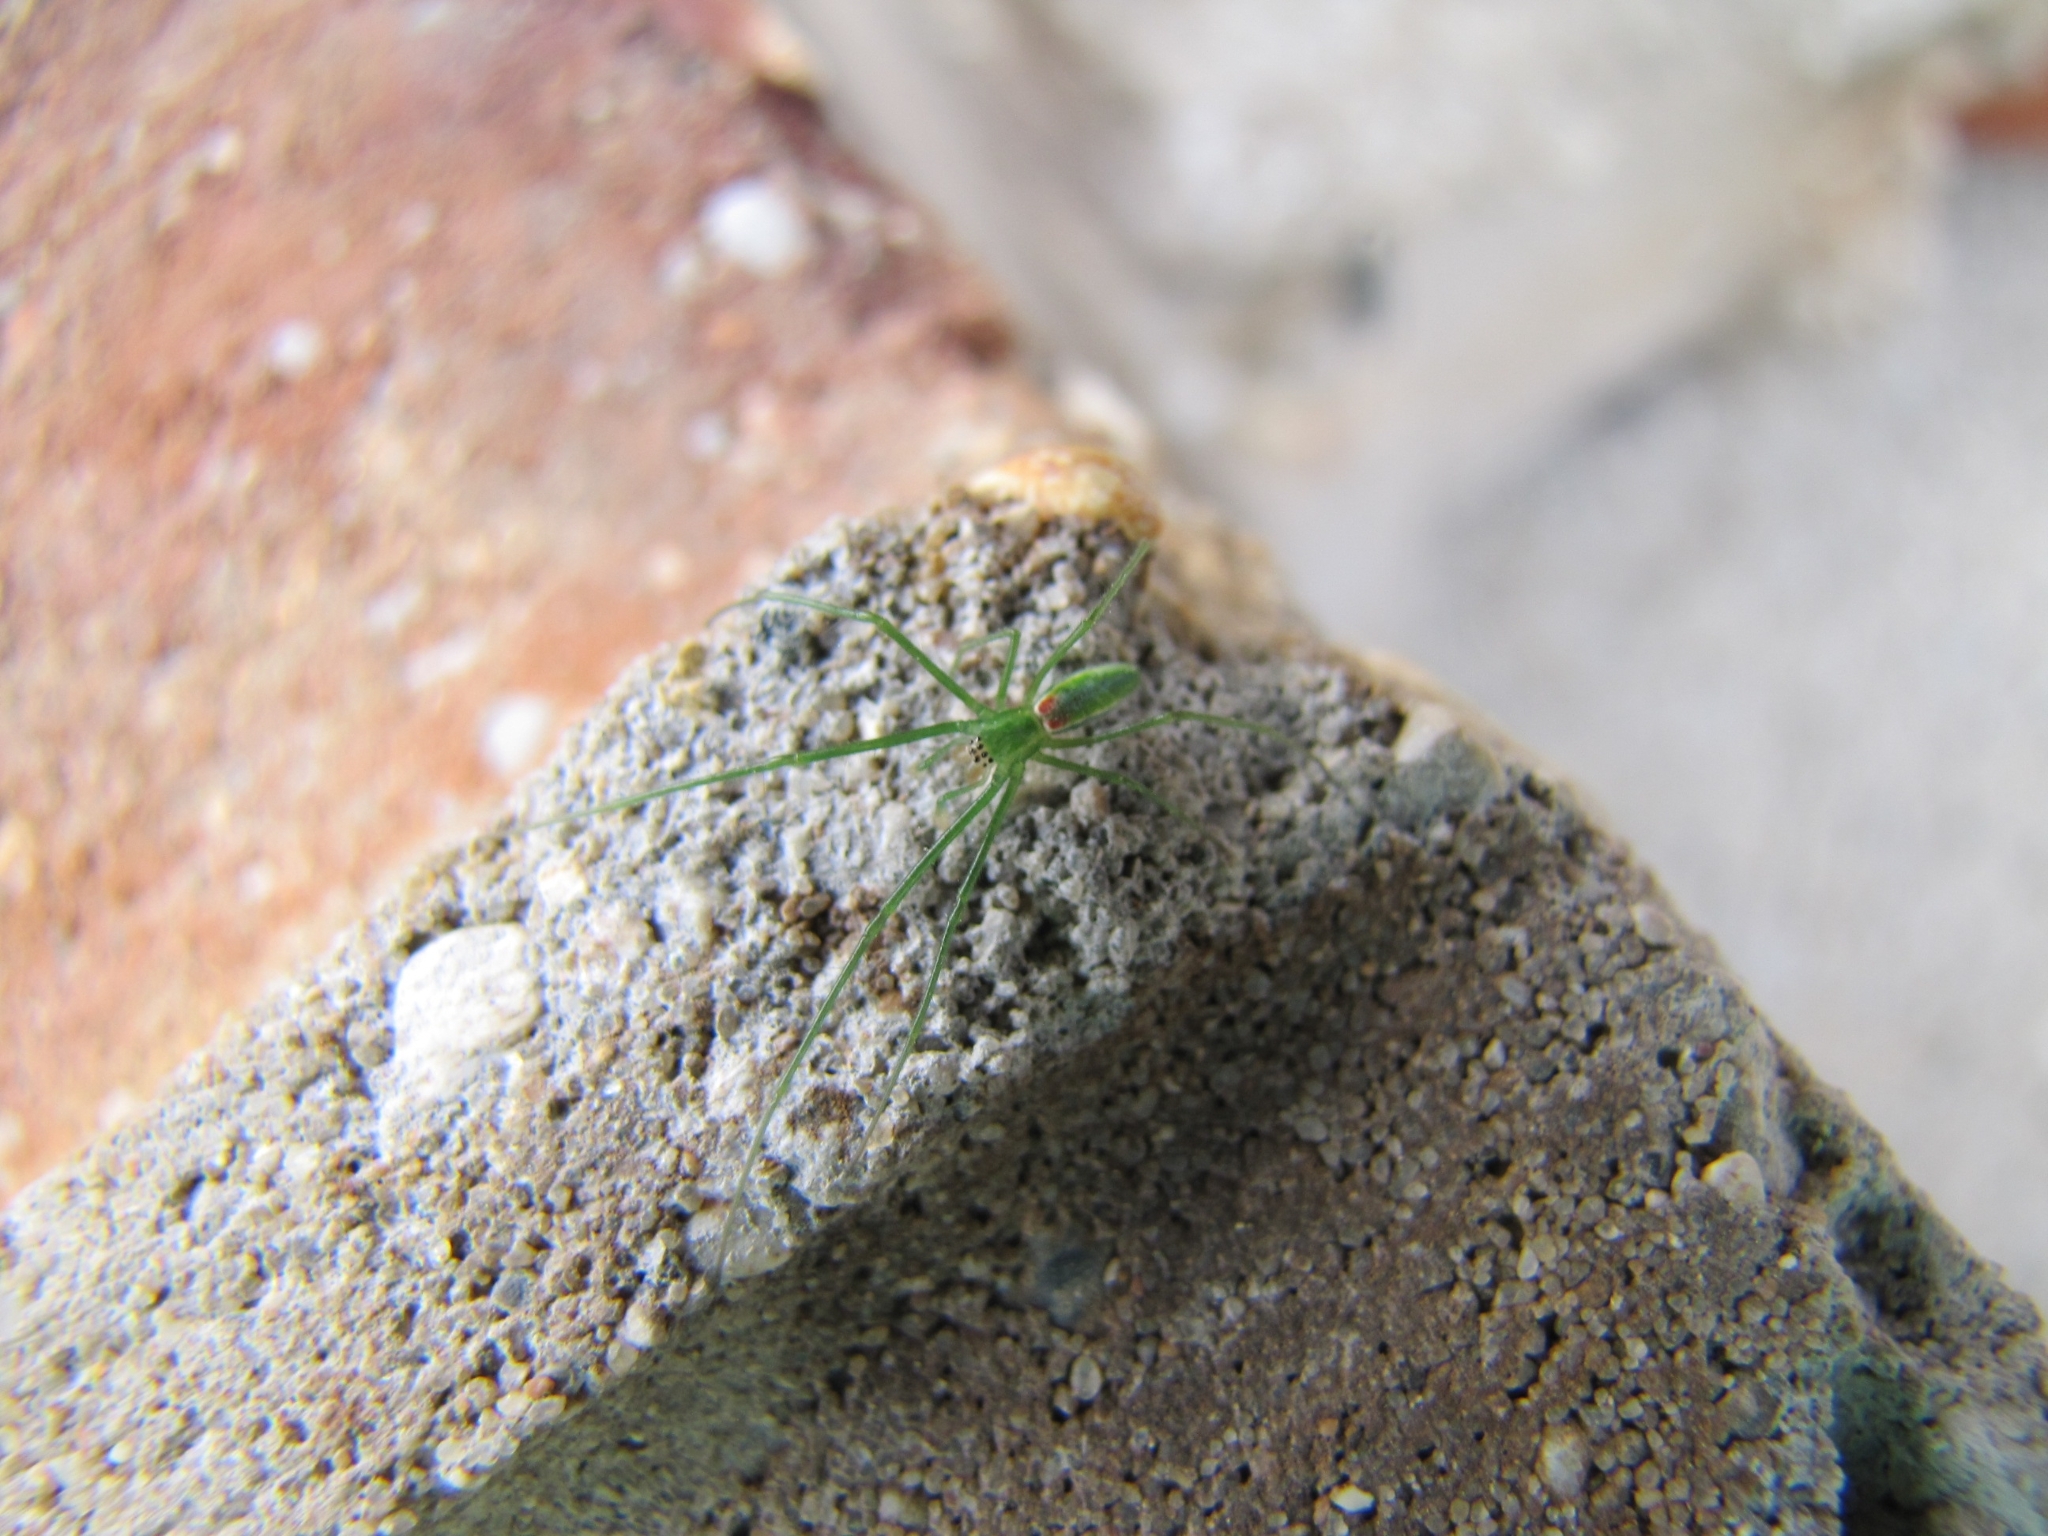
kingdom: Animalia
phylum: Arthropoda
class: Arachnida
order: Araneae
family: Tetragnathidae
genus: Tetragnatha
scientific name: Tetragnatha viridis
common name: Green long-jawed spider
